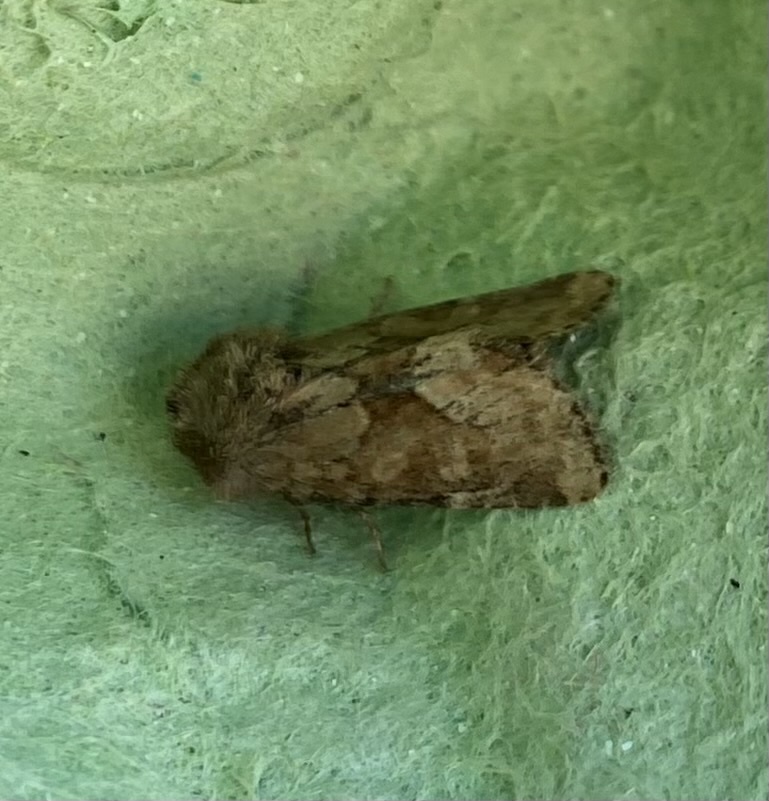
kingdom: Animalia
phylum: Arthropoda
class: Insecta
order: Lepidoptera
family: Noctuidae
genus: Oligia
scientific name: Oligia fasciuncula
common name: Middle-barred minor
